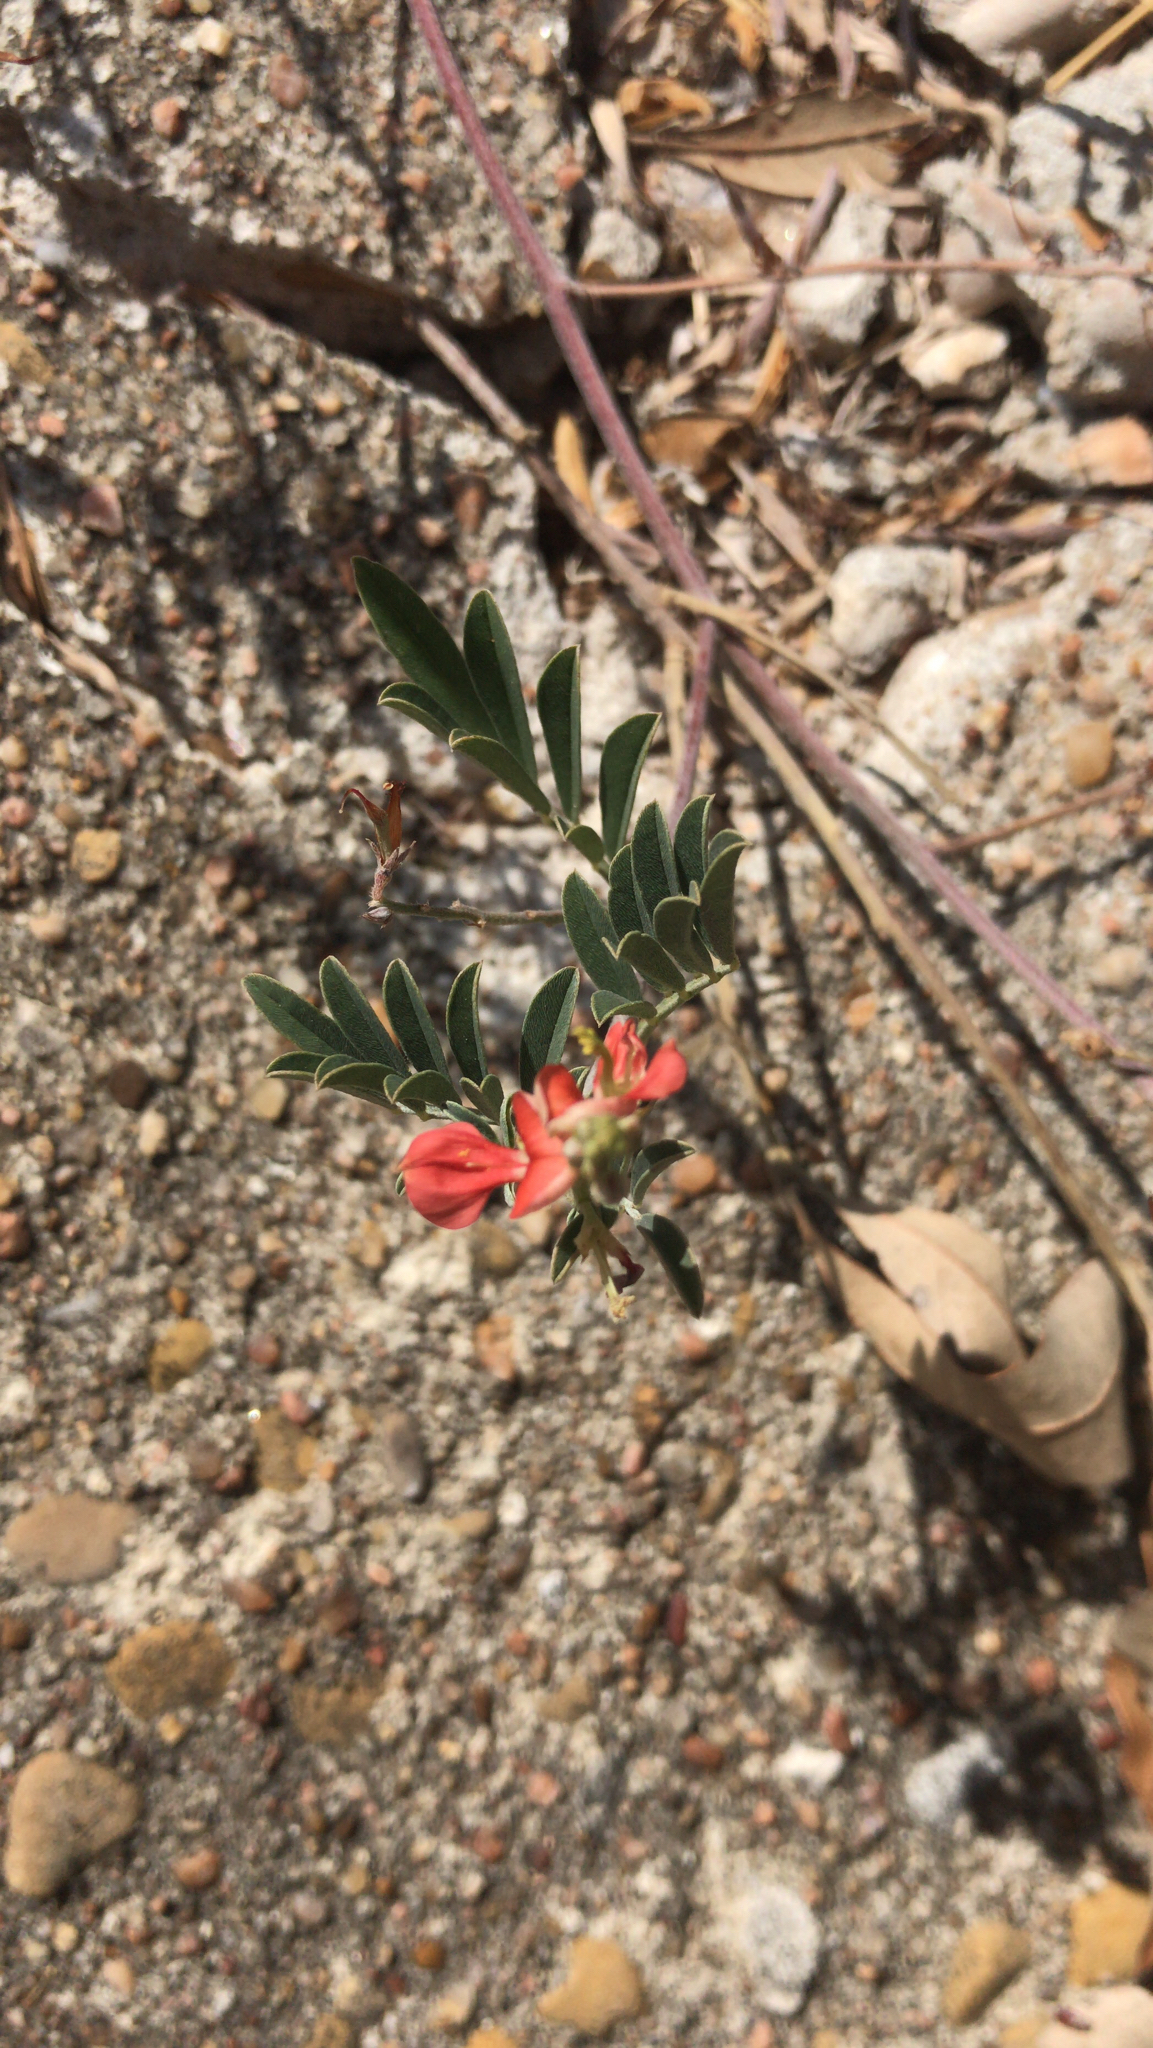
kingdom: Plantae
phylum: Tracheophyta
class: Magnoliopsida
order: Fabales
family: Fabaceae
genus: Indigofera
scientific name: Indigofera miniata
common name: Coast indigo
